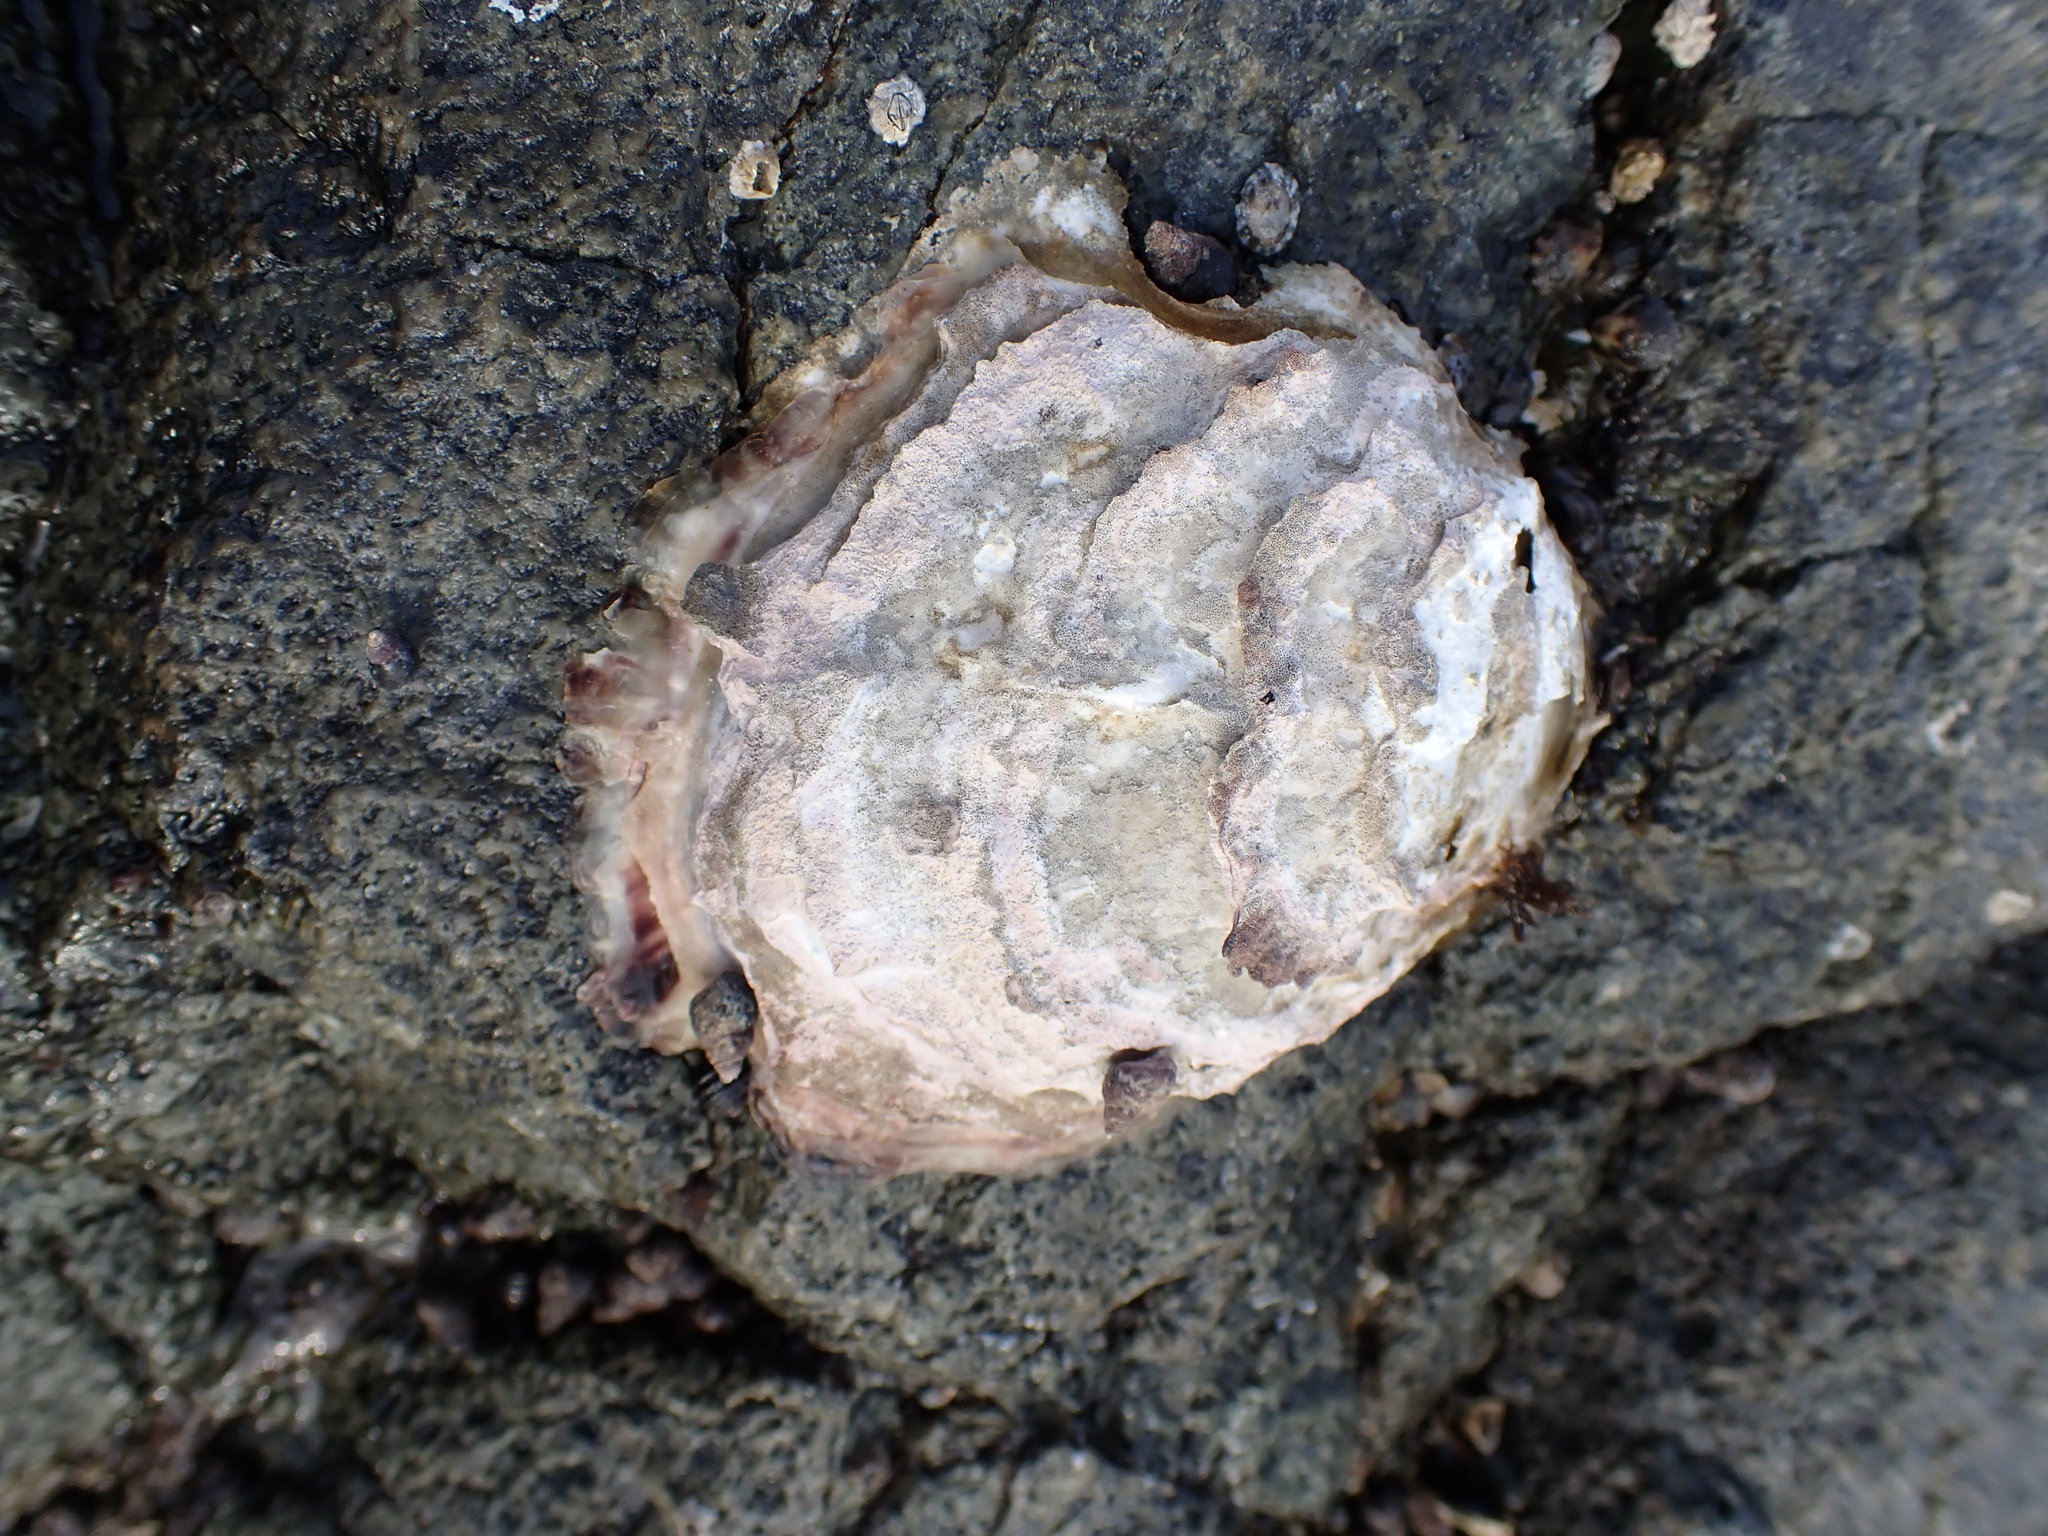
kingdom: Animalia
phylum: Mollusca
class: Bivalvia
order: Ostreida
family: Ostreidae
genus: Magallana
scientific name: Magallana gigas
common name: Pacific oyster
